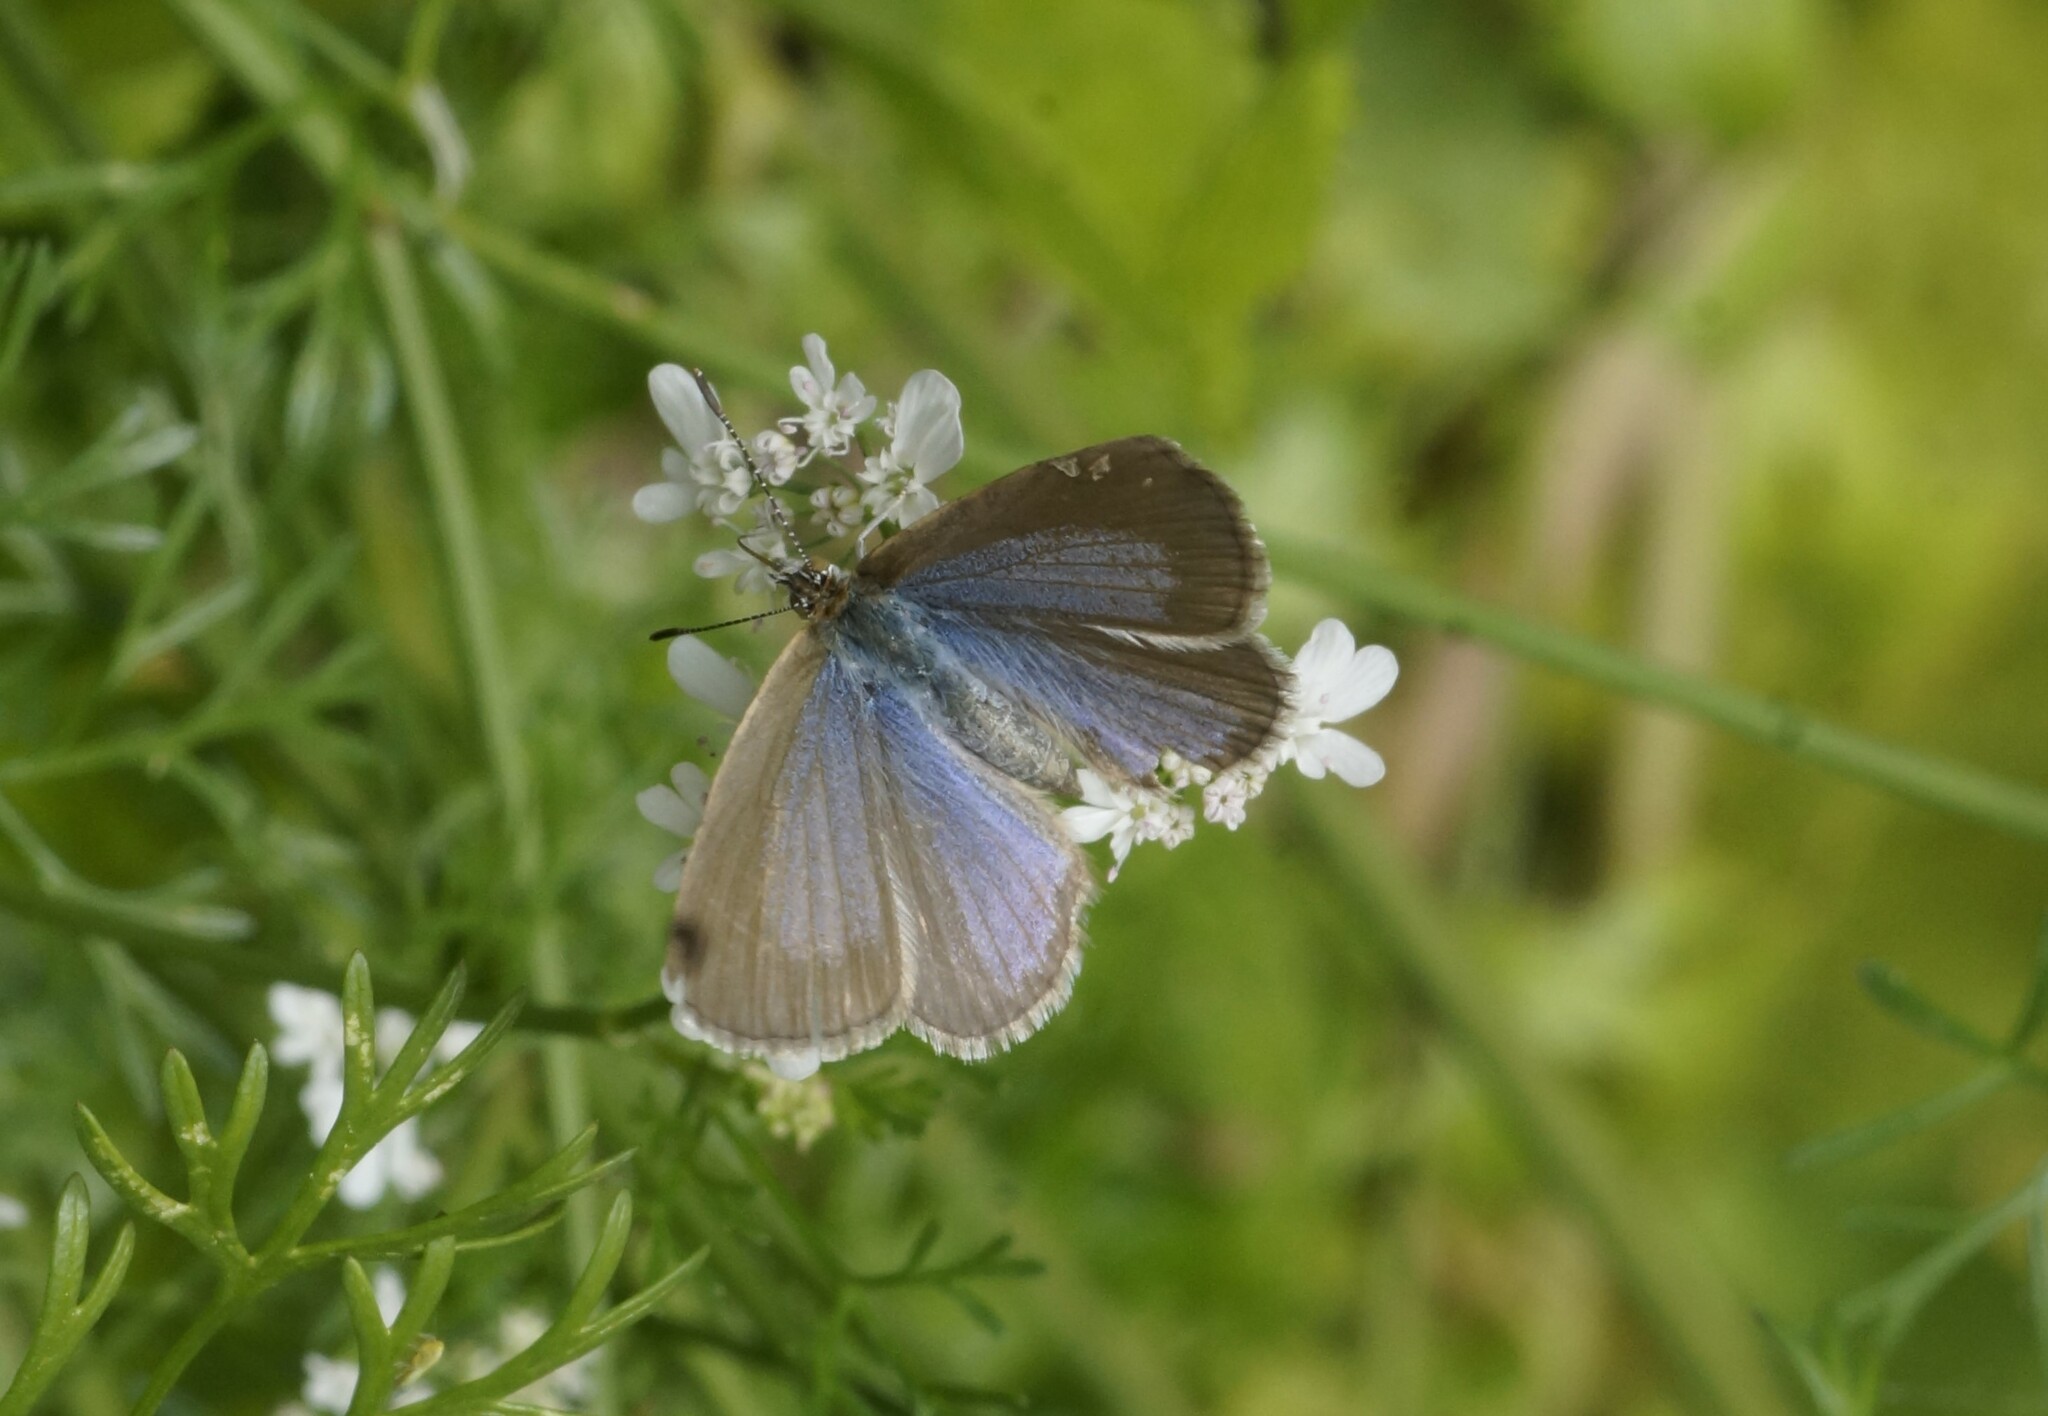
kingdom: Animalia
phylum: Arthropoda
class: Insecta
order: Lepidoptera
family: Lycaenidae
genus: Zizina
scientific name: Zizina otis
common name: Lesser grass blue
